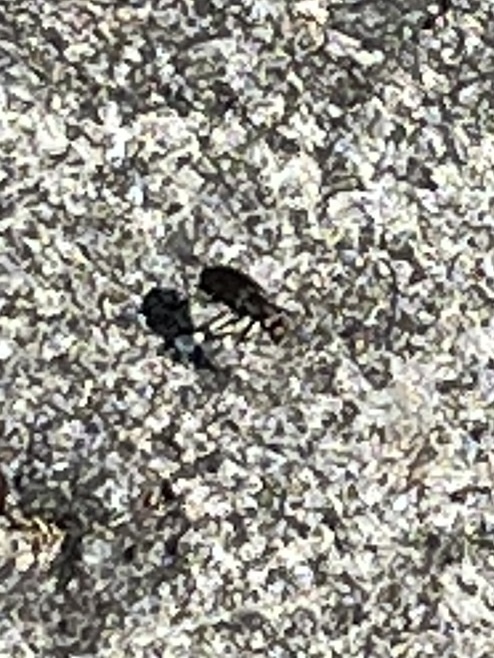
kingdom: Animalia
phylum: Arthropoda
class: Insecta
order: Coleoptera
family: Carabidae
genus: Cicindela
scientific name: Cicindela punctulata
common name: Punctured tiger beetle
